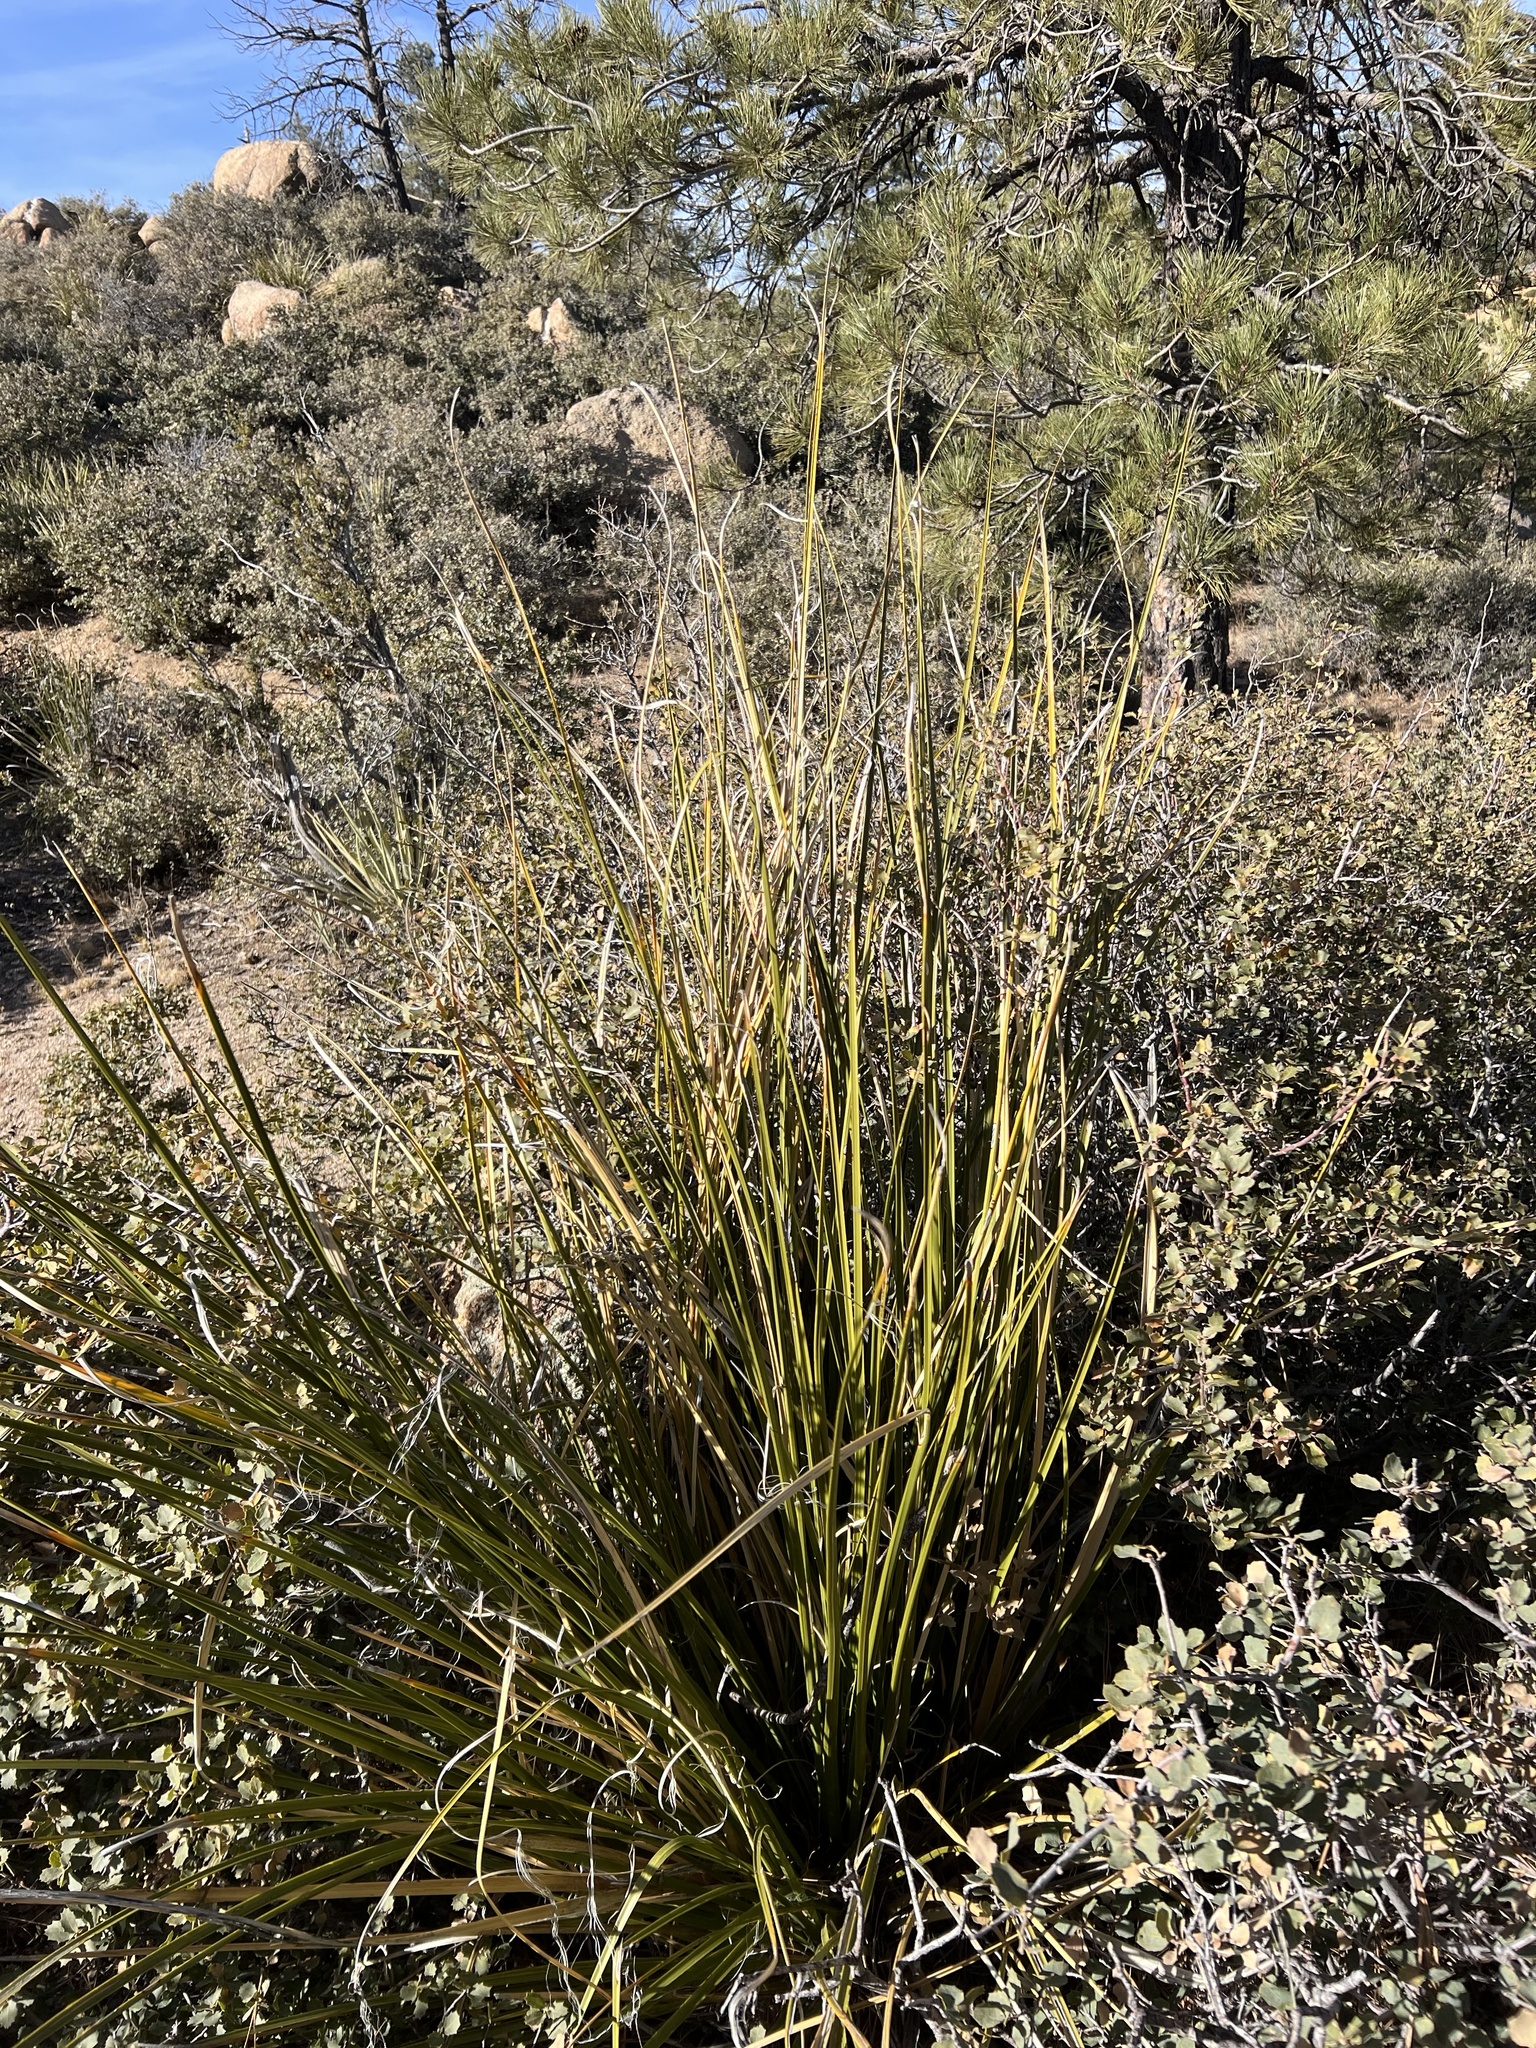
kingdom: Plantae
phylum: Tracheophyta
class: Liliopsida
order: Asparagales
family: Asparagaceae
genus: Nolina
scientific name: Nolina microcarpa
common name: Bear-grass
